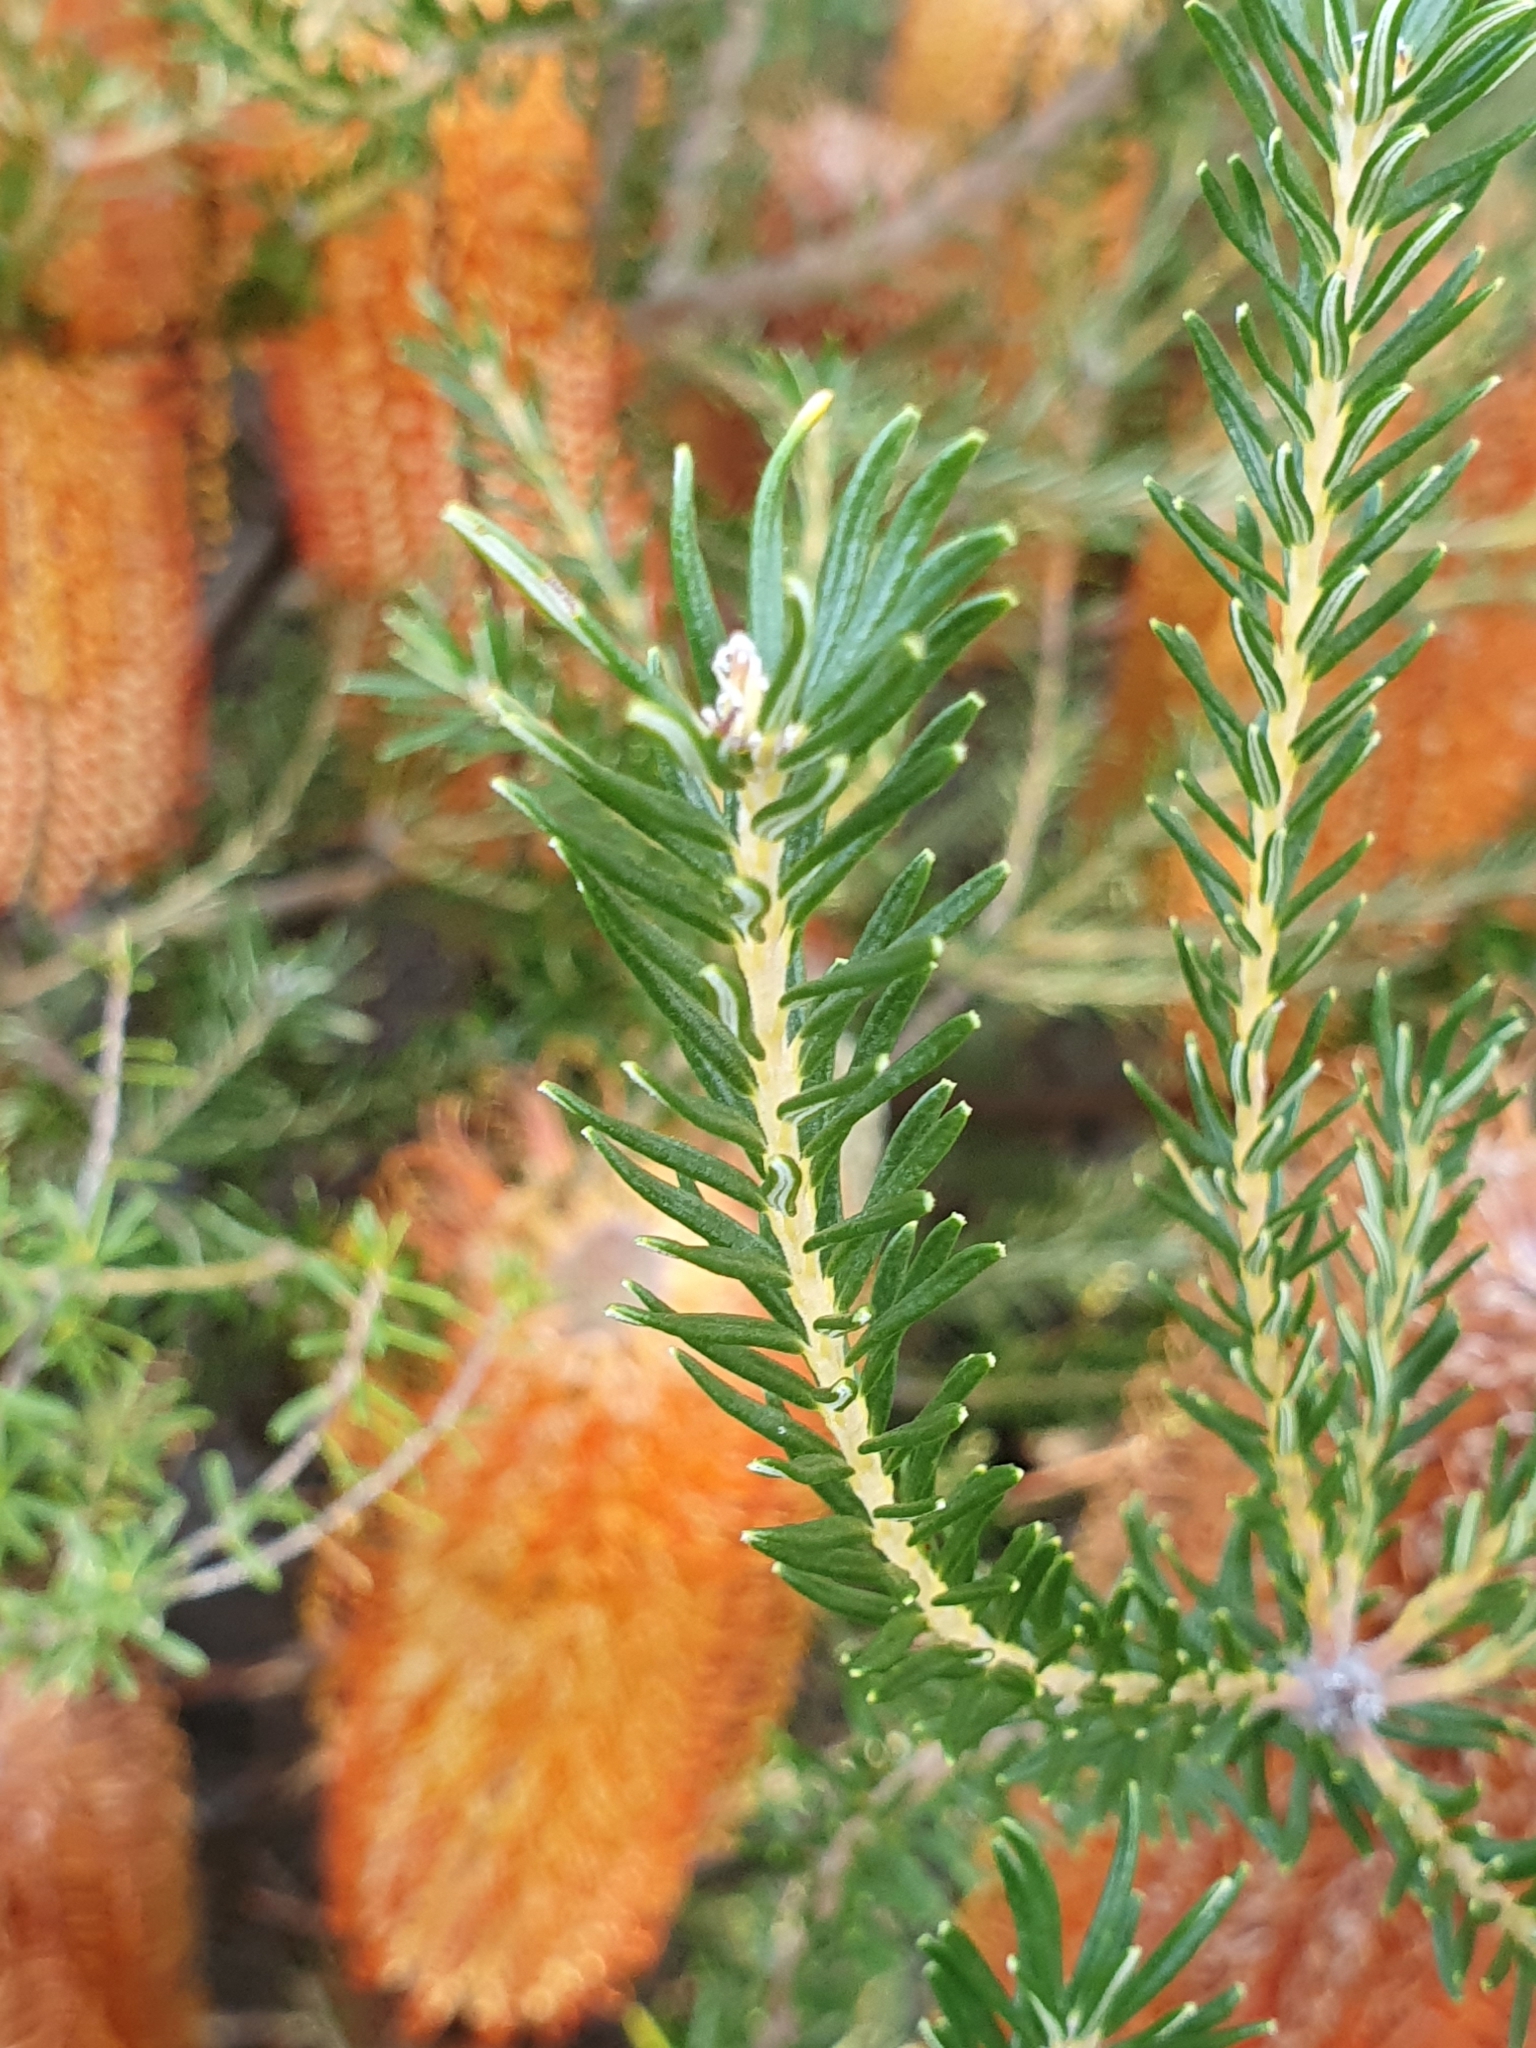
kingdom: Plantae
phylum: Tracheophyta
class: Magnoliopsida
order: Proteales
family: Proteaceae
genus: Banksia
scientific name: Banksia ericifolia
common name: Heath-leaf banksia
